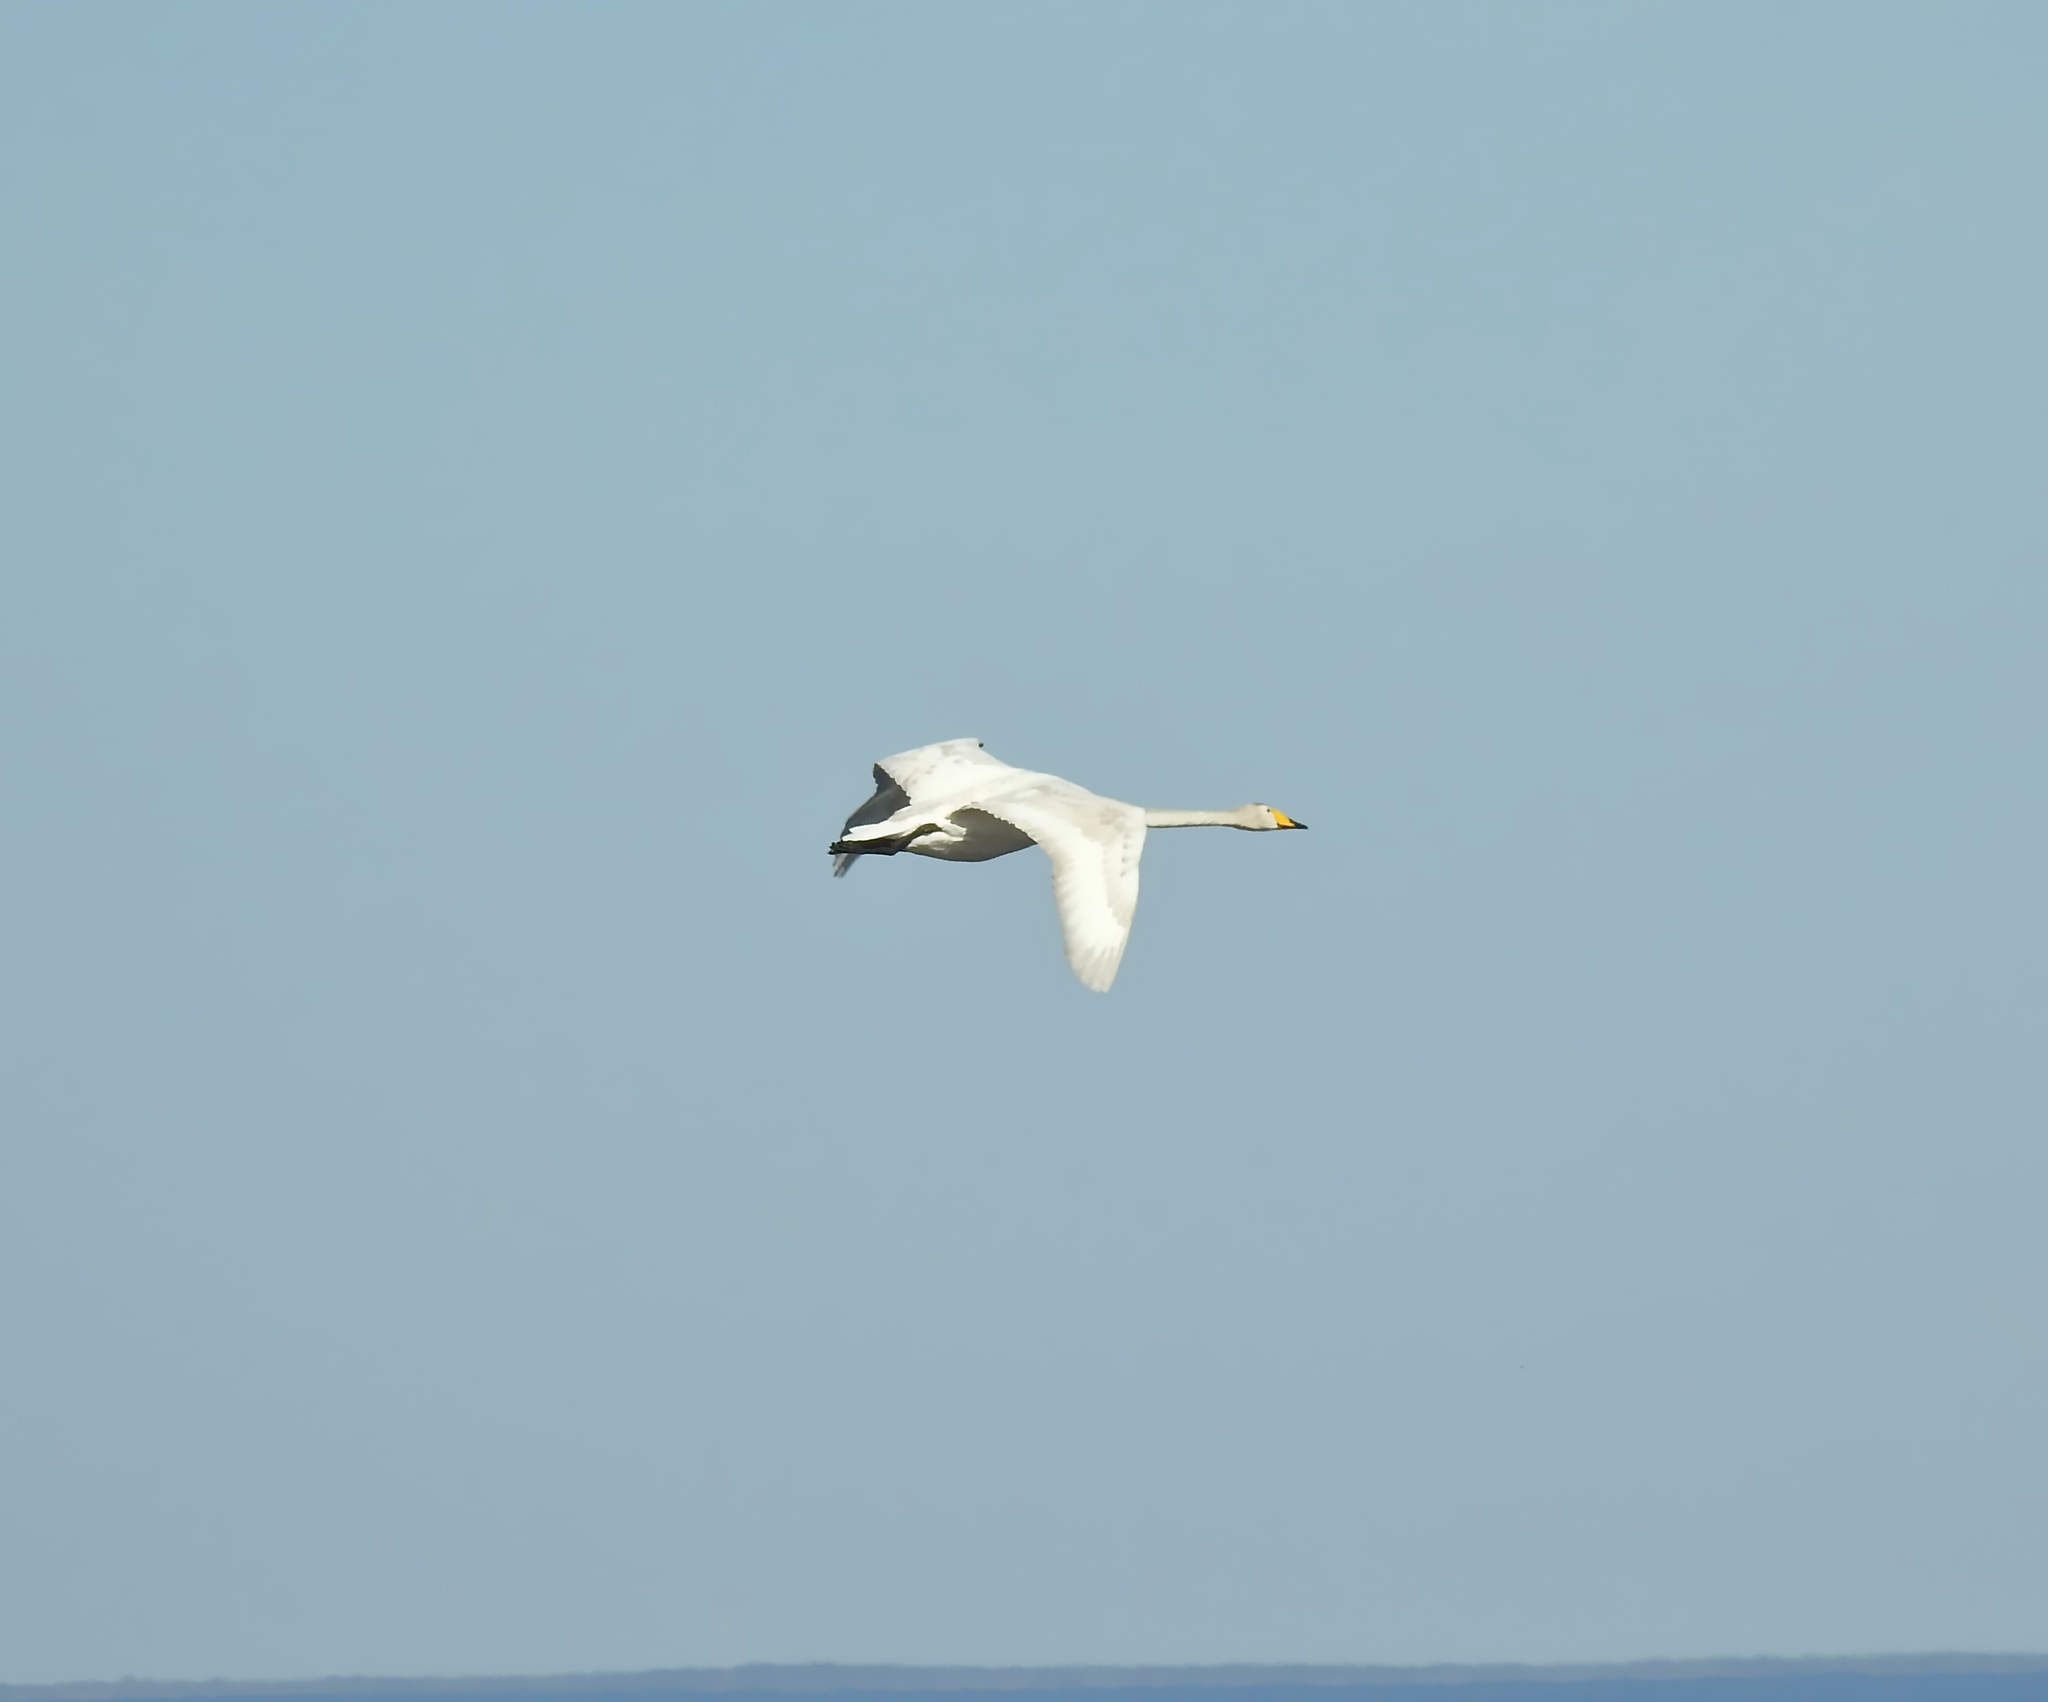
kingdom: Animalia
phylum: Chordata
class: Aves
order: Anseriformes
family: Anatidae
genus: Cygnus
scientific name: Cygnus cygnus
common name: Whooper swan
